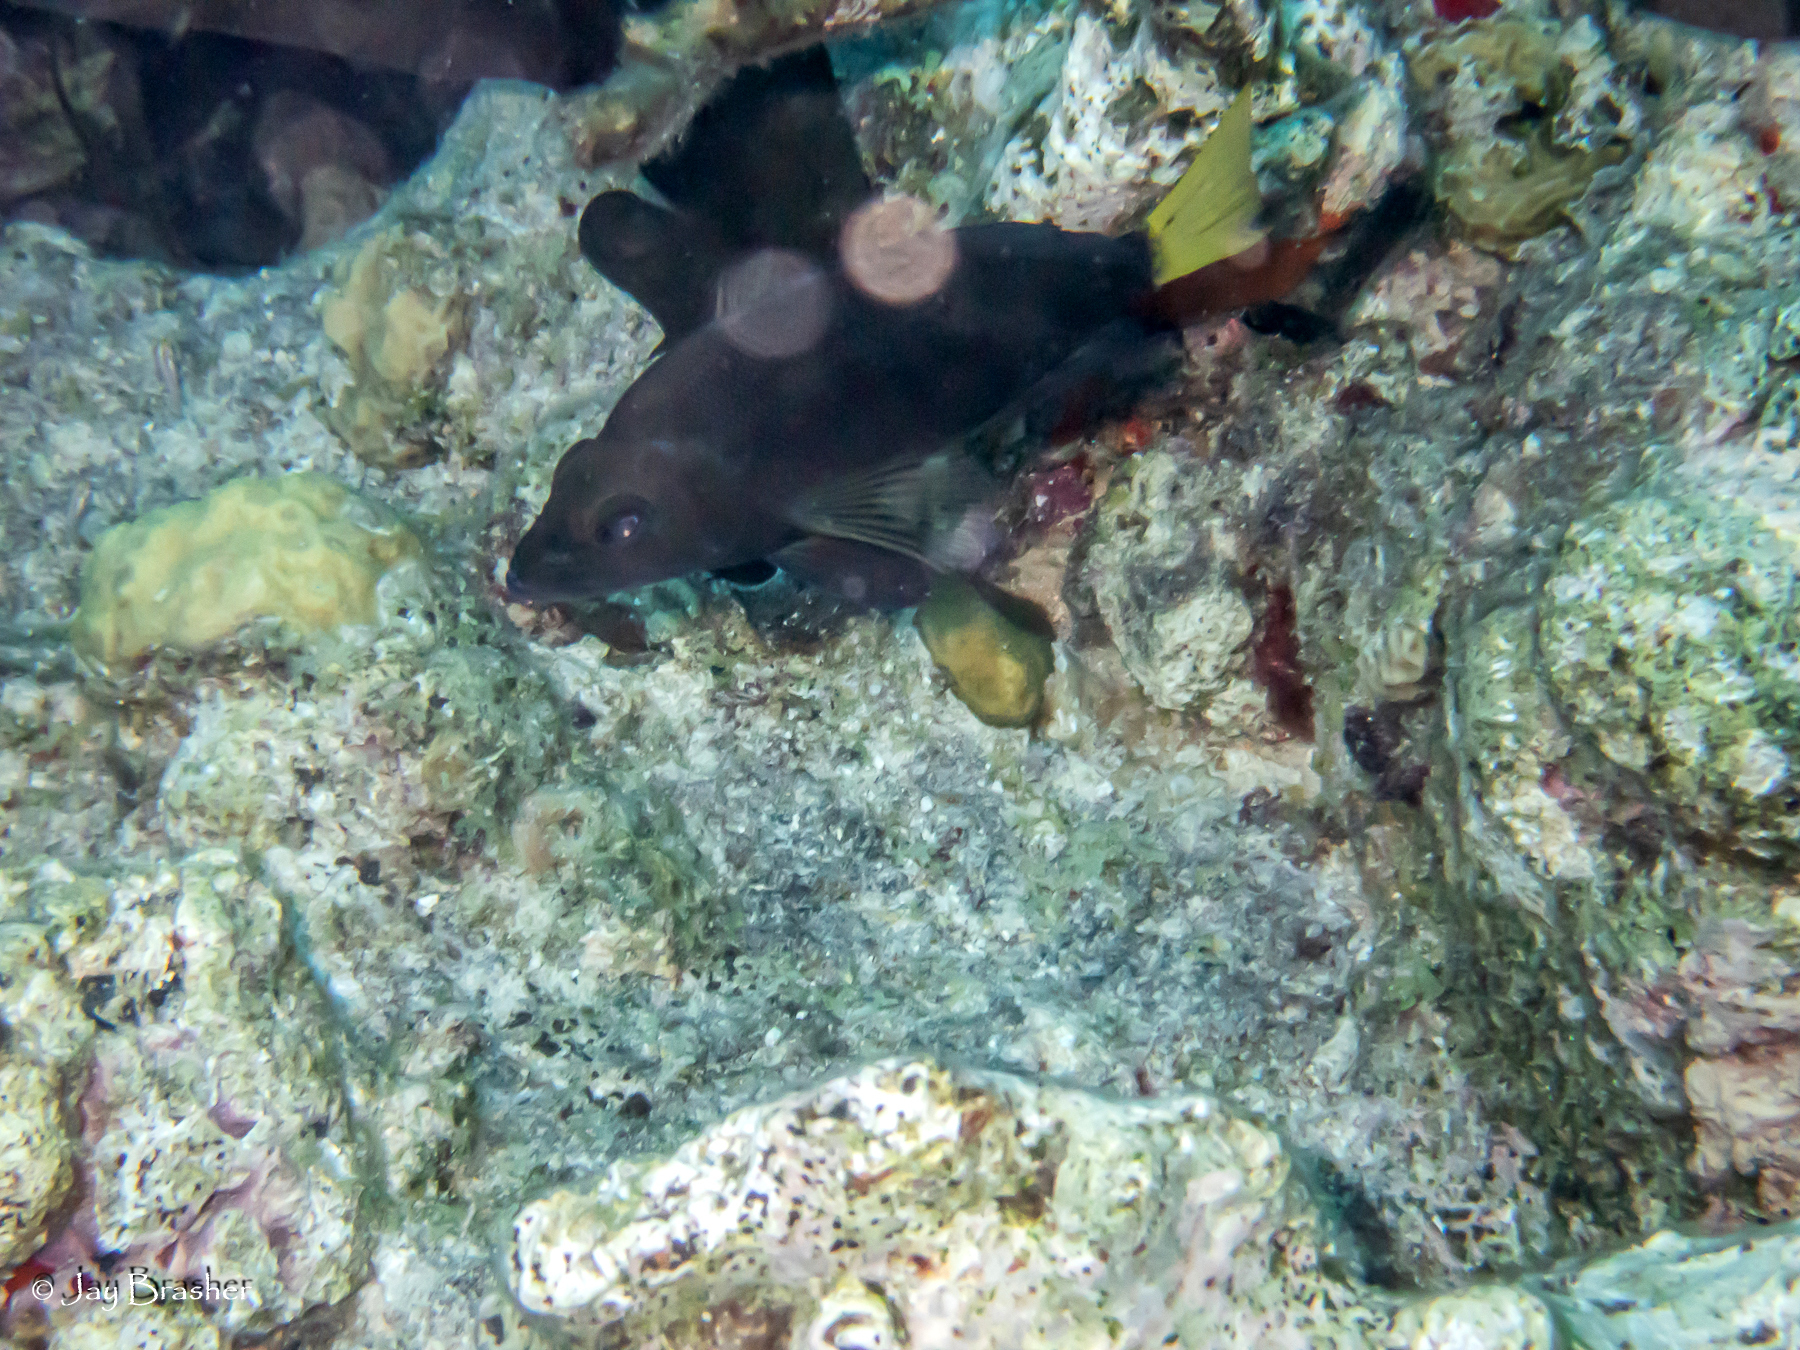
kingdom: Animalia
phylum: Chordata
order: Perciformes
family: Serranidae
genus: Hypoplectrus
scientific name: Hypoplectrus chlorurus
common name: Yellowtail hamlet
